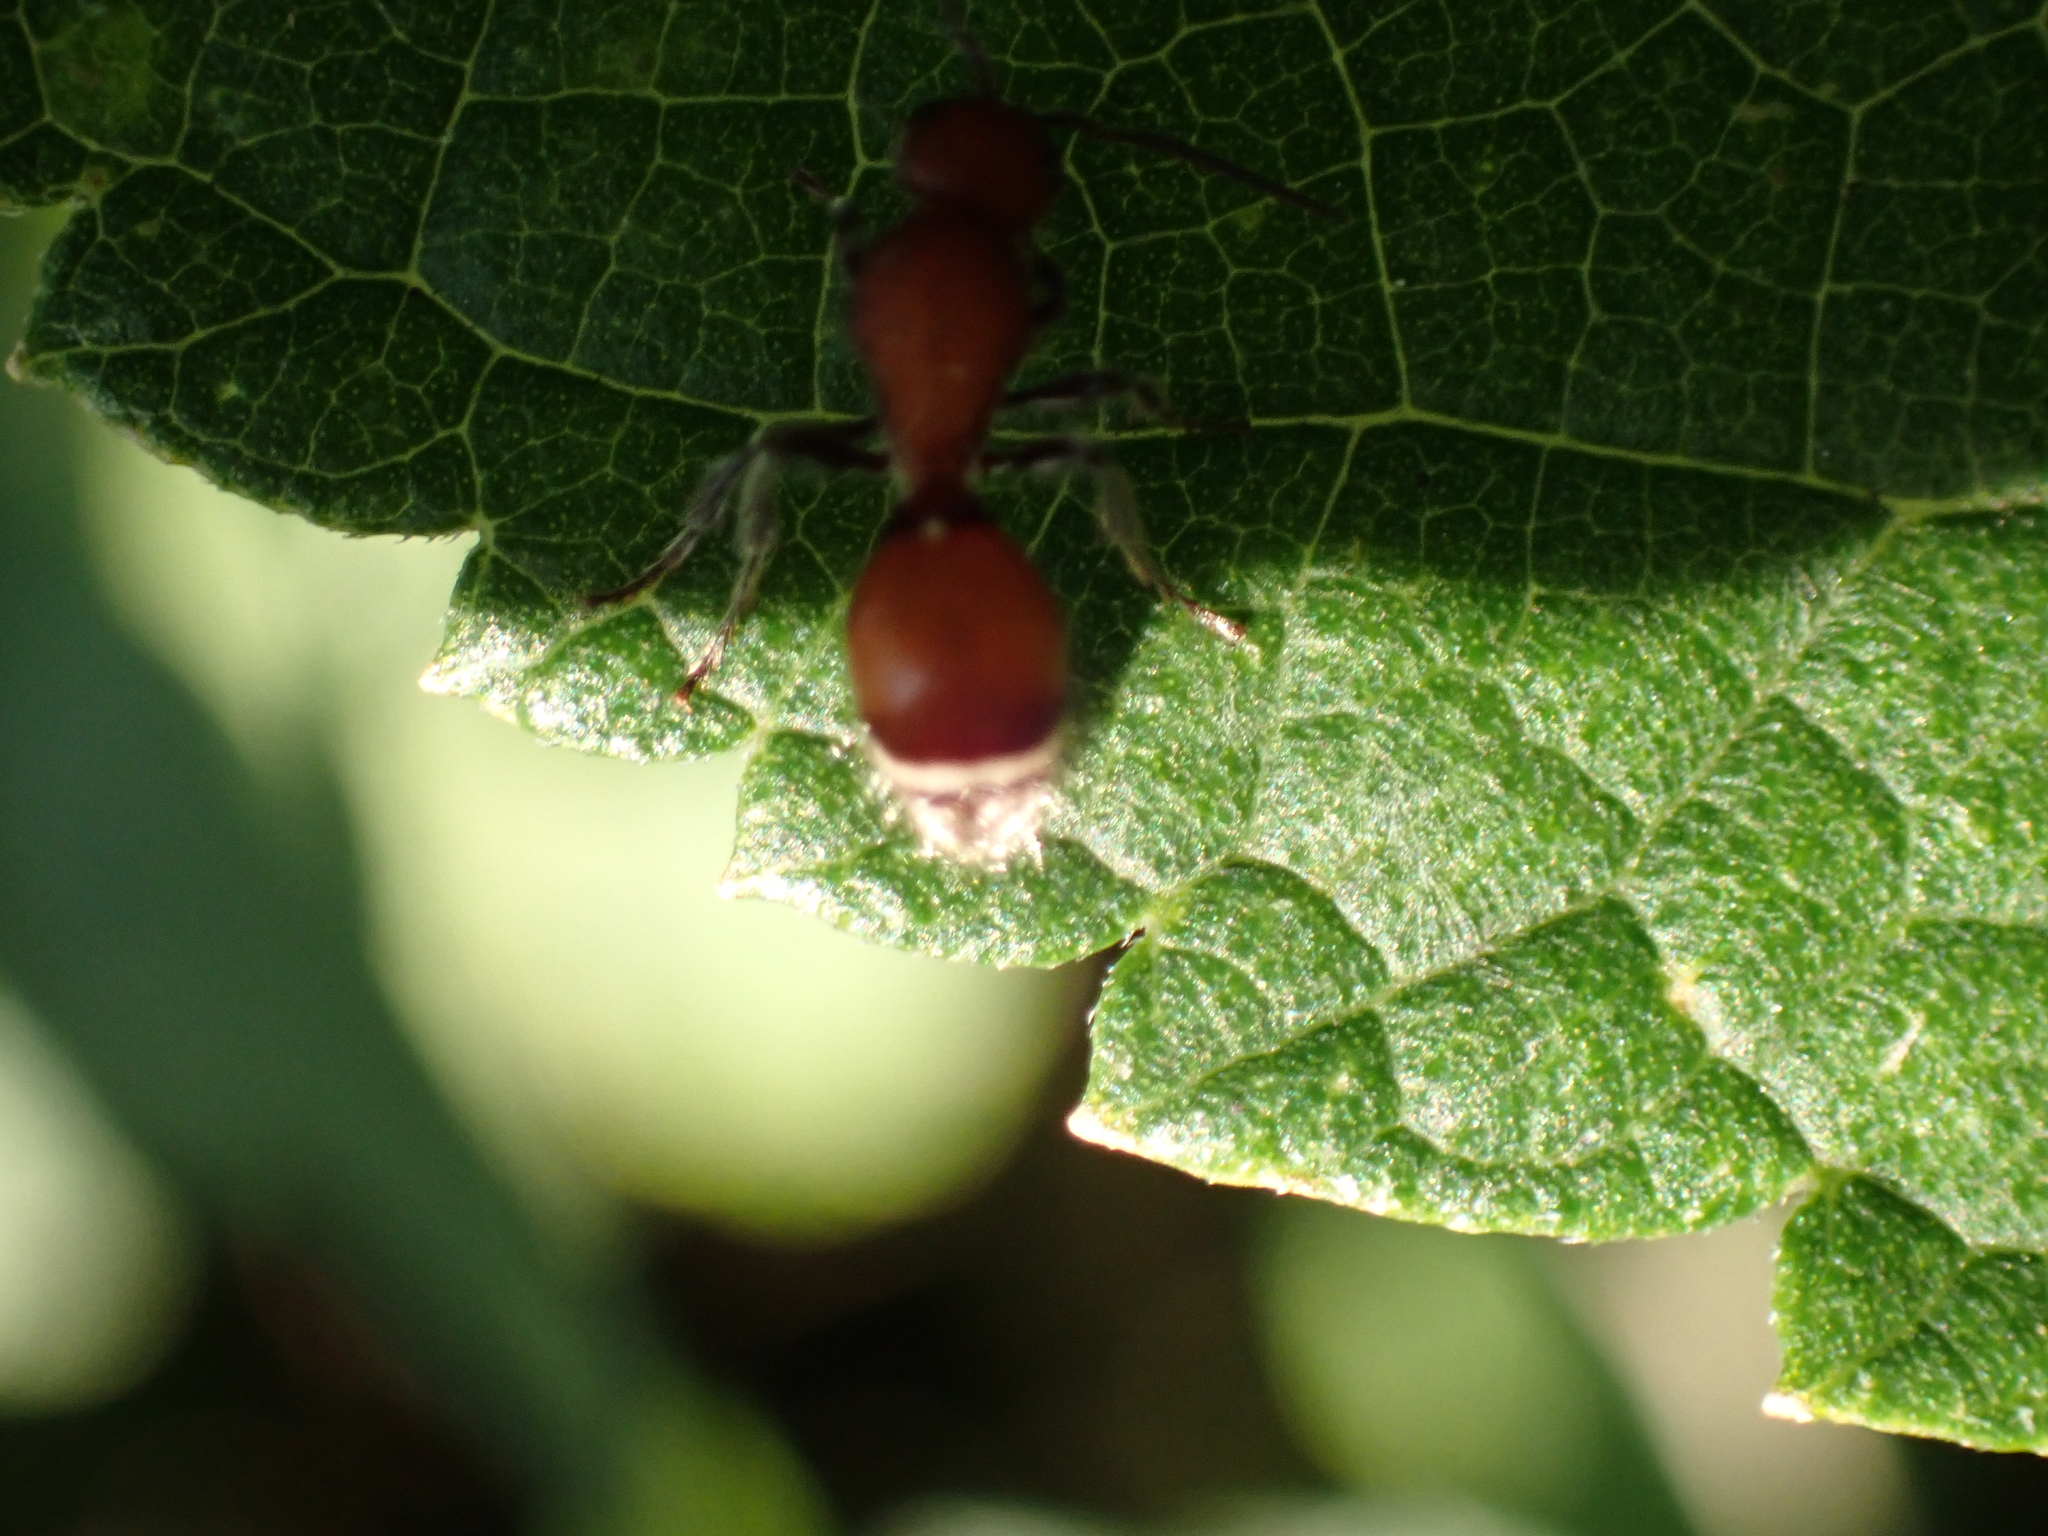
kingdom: Animalia
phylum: Arthropoda
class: Insecta
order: Hymenoptera
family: Mutillidae
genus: Sphaeropthalma
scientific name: Sphaeropthalma
